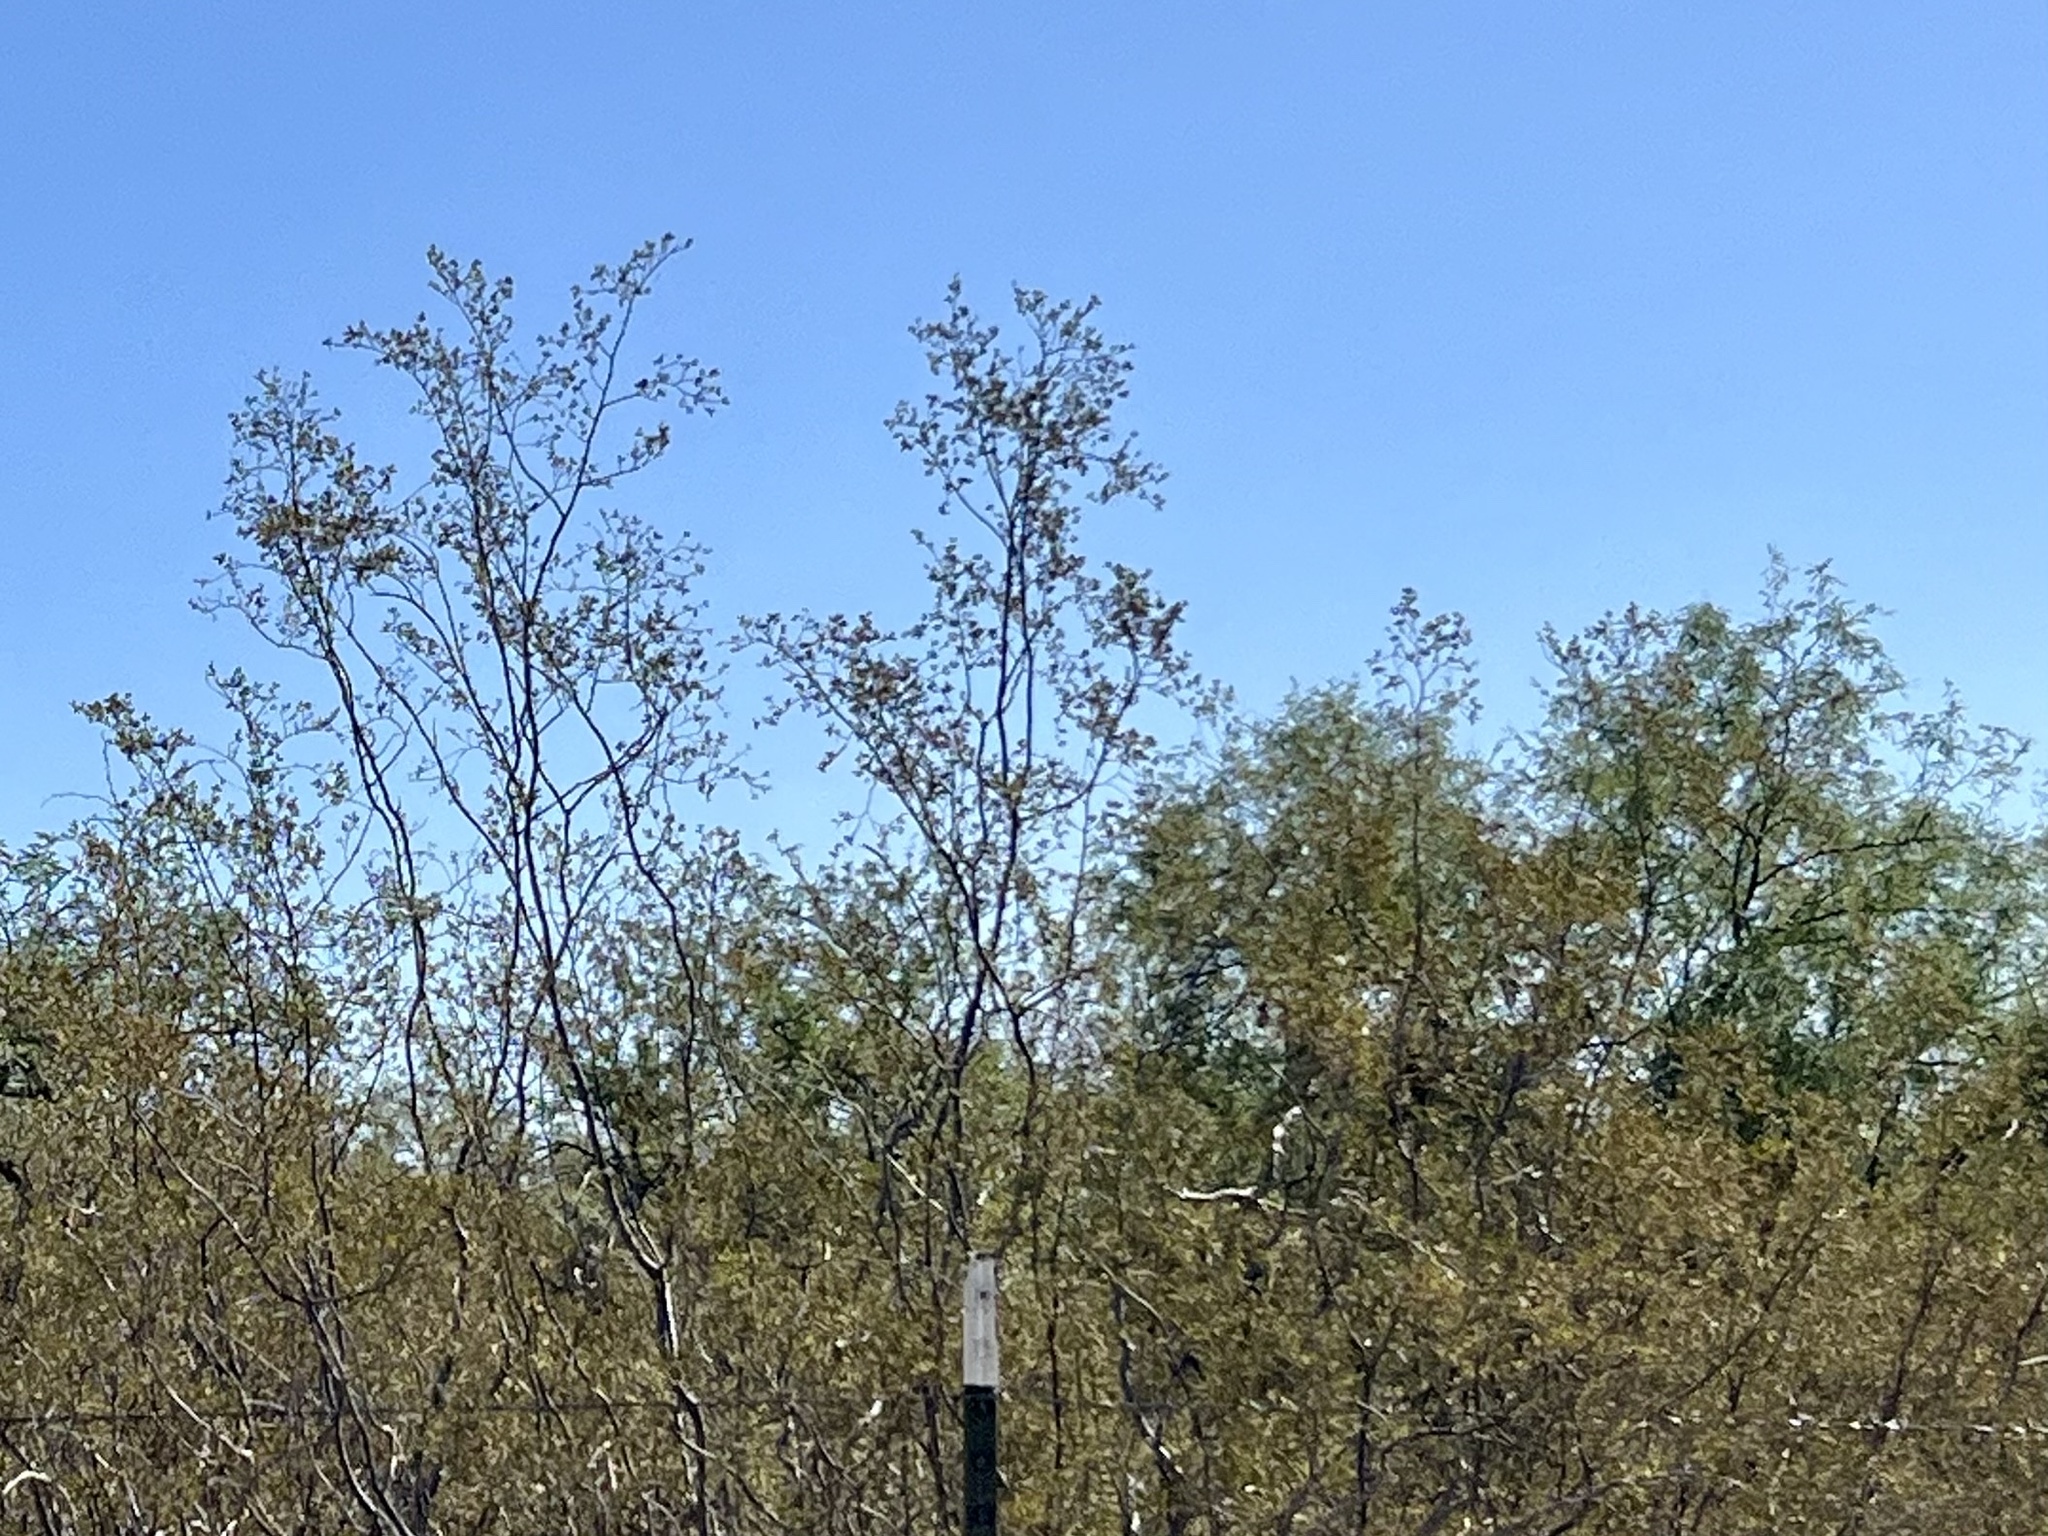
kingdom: Plantae
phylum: Tracheophyta
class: Magnoliopsida
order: Zygophyllales
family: Zygophyllaceae
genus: Larrea
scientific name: Larrea tridentata
